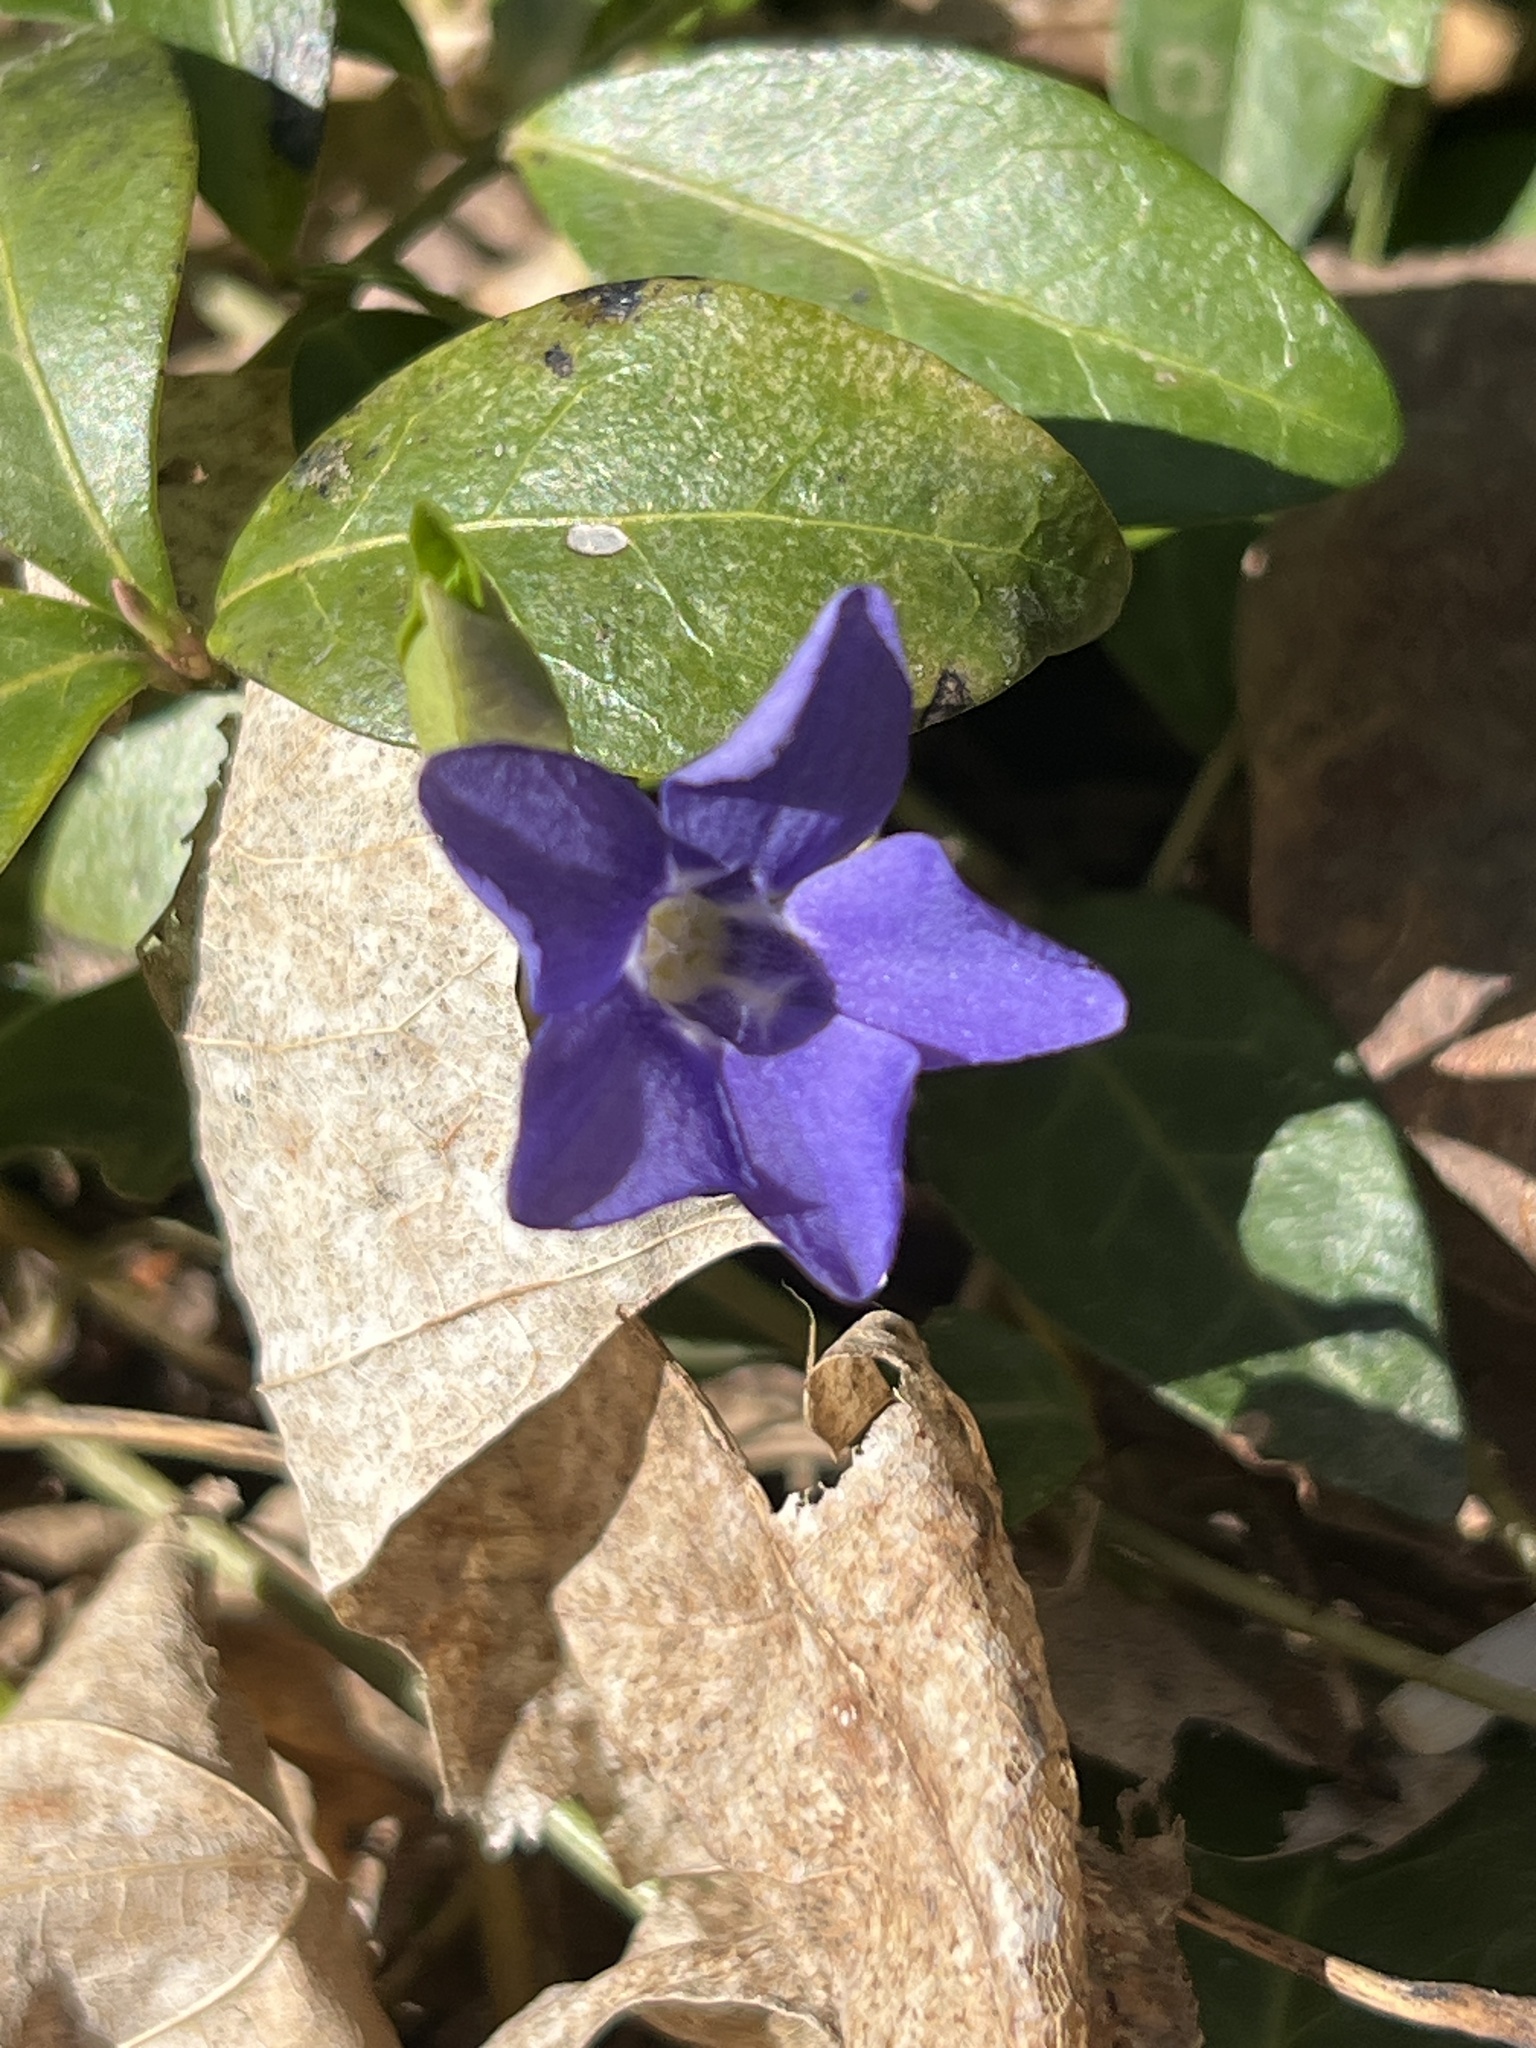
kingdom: Plantae
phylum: Tracheophyta
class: Magnoliopsida
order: Gentianales
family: Apocynaceae
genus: Vinca
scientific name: Vinca minor
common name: Lesser periwinkle
